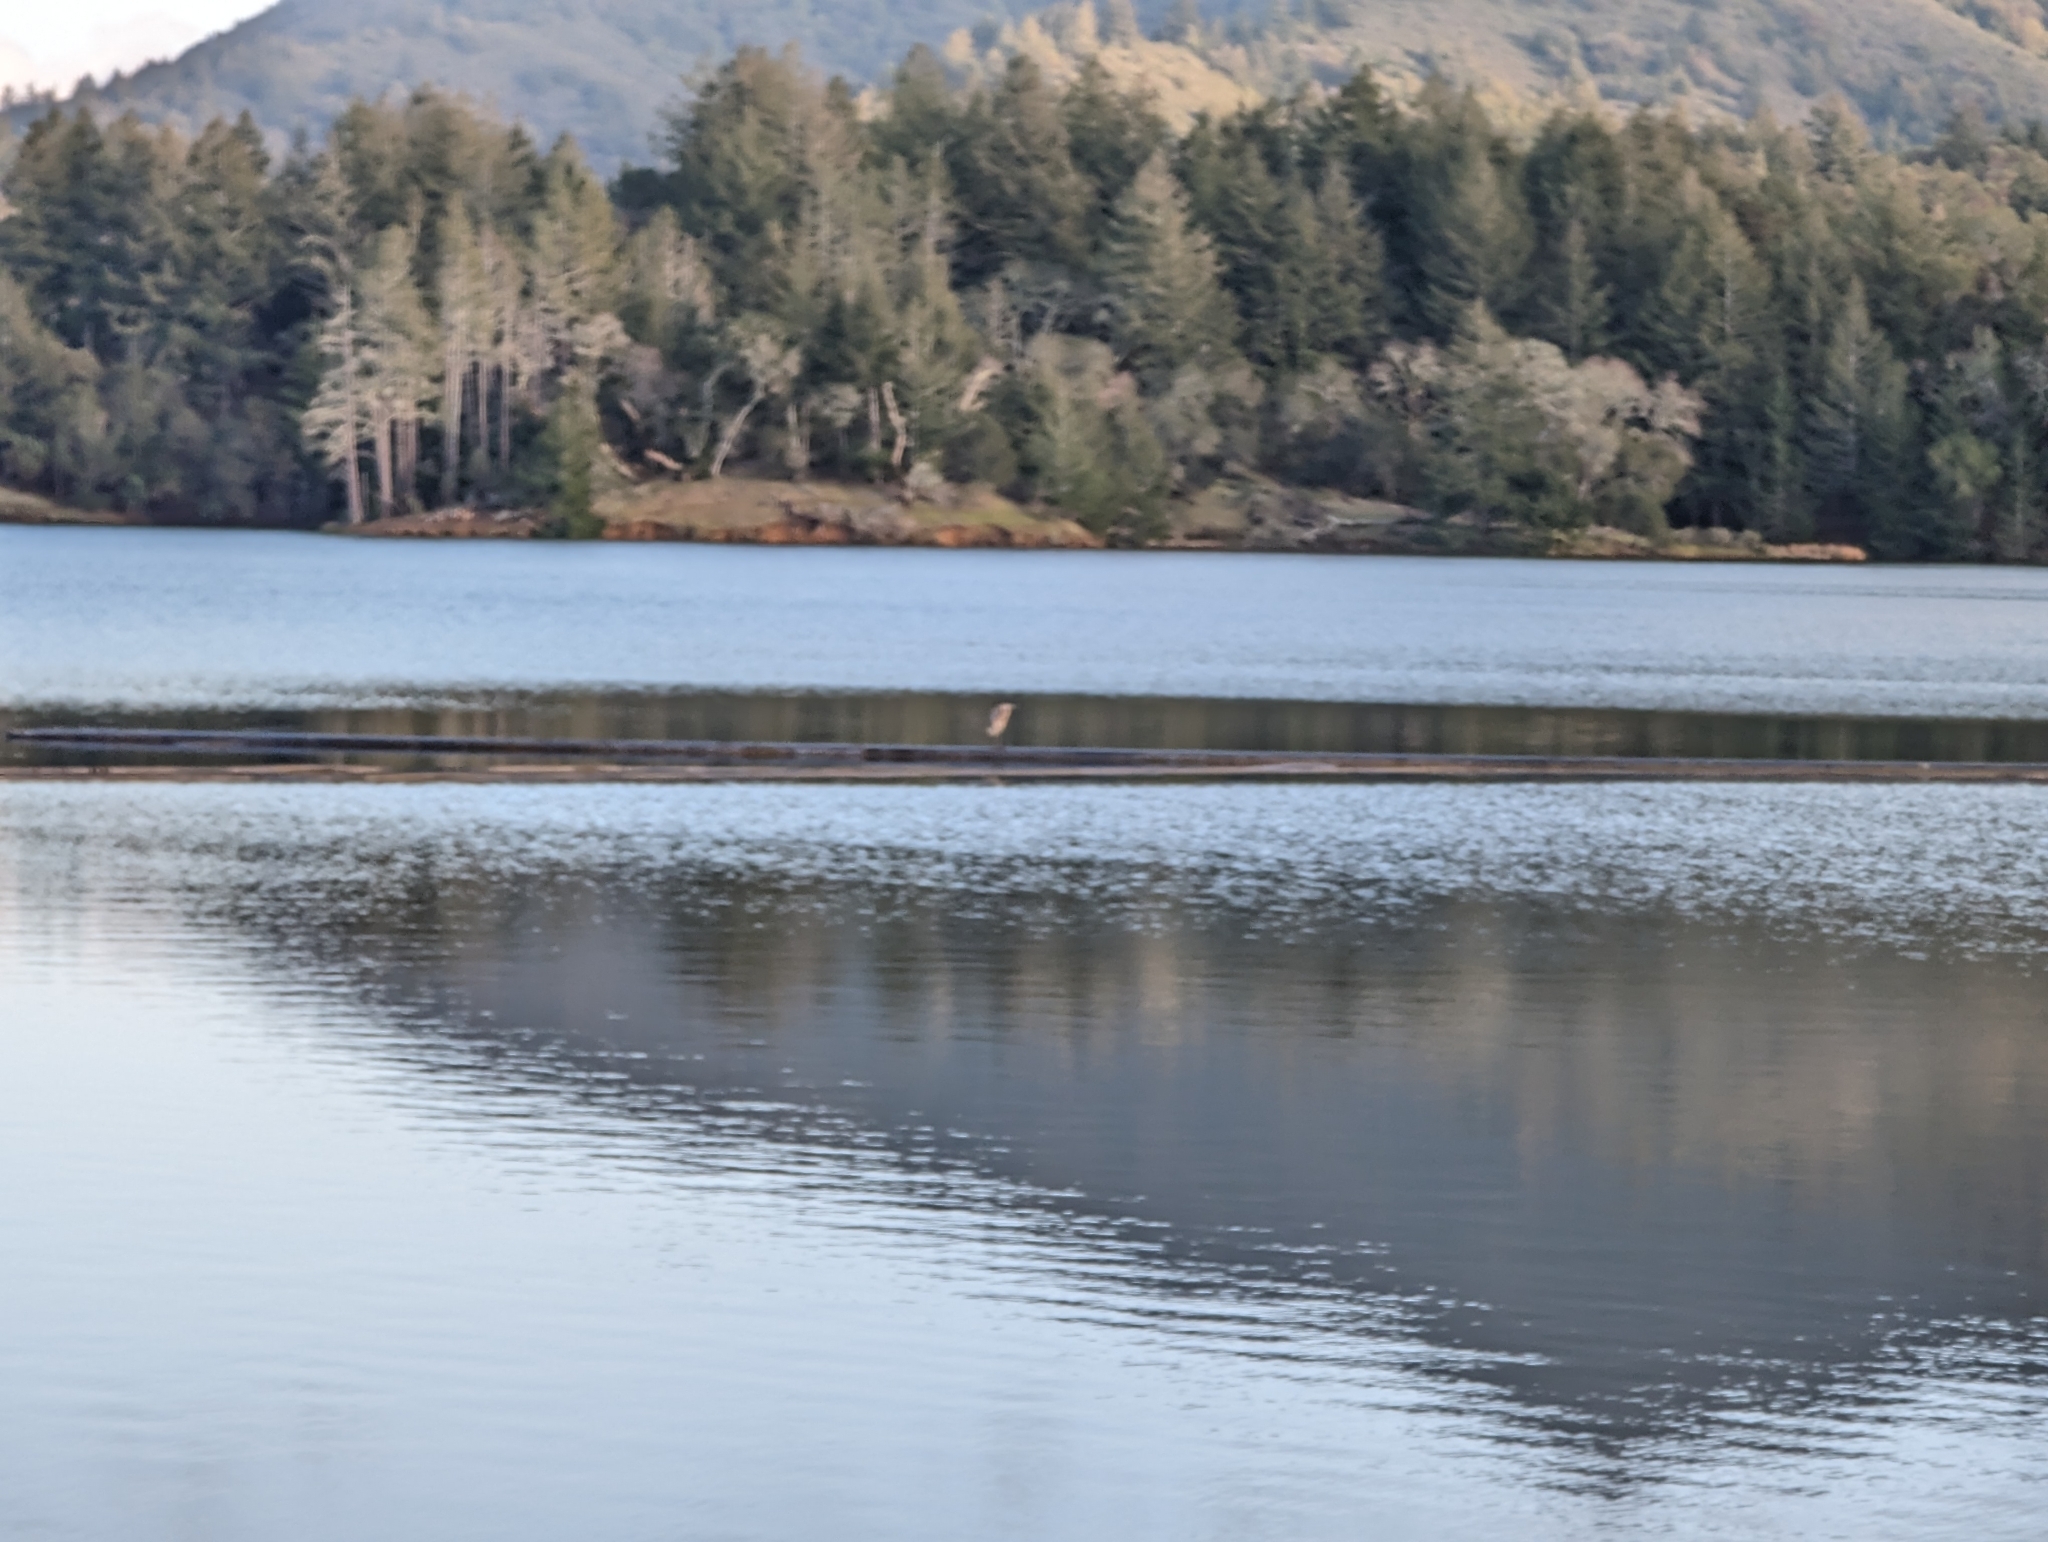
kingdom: Animalia
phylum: Chordata
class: Aves
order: Pelecaniformes
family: Ardeidae
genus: Ardea
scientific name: Ardea herodias
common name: Great blue heron
